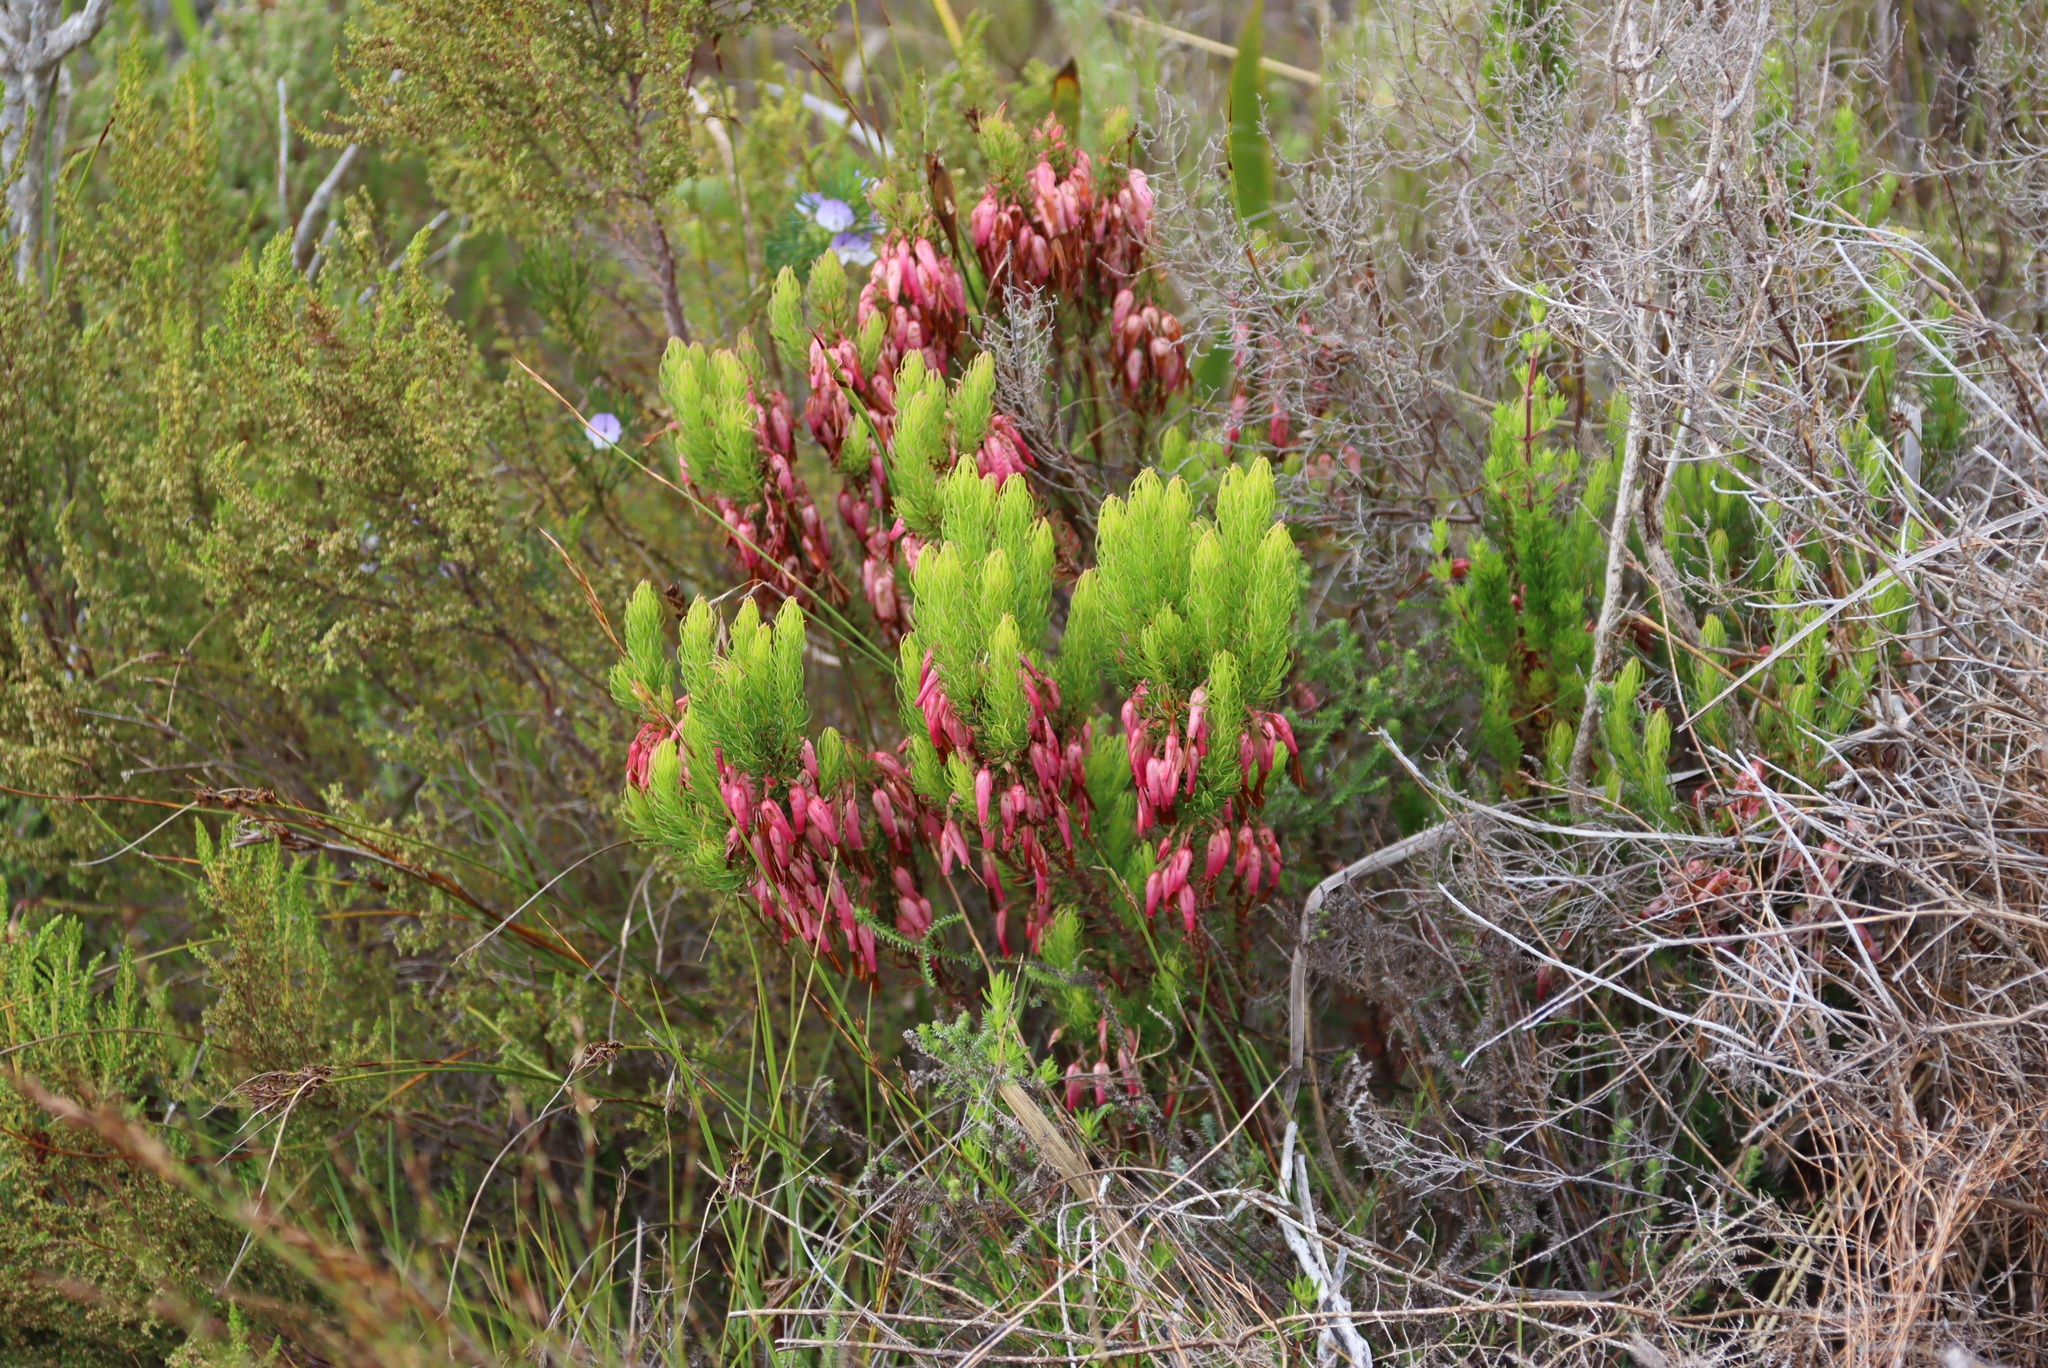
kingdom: Plantae
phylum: Tracheophyta
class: Magnoliopsida
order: Ericales
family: Ericaceae
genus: Erica
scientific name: Erica plukenetii
